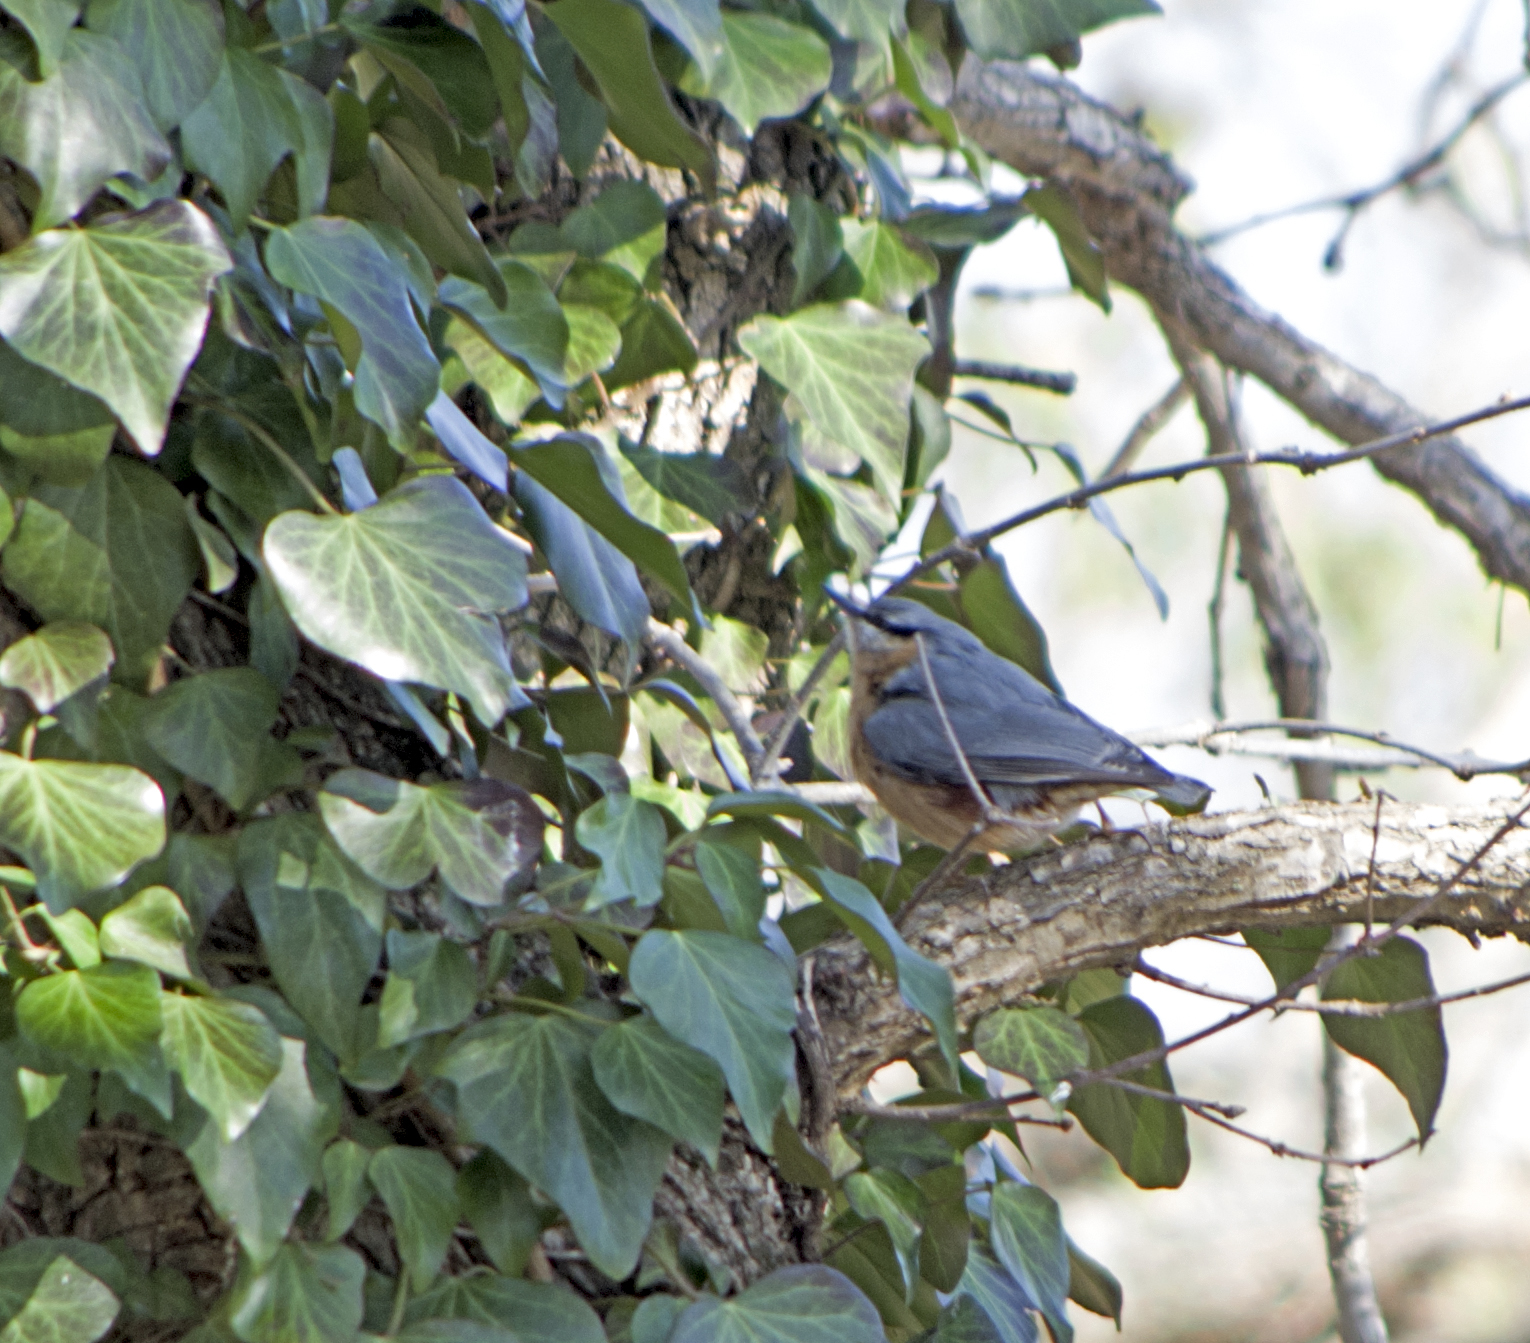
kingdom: Animalia
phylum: Chordata
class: Aves
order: Passeriformes
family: Sittidae
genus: Sitta
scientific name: Sitta europaea
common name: Eurasian nuthatch
